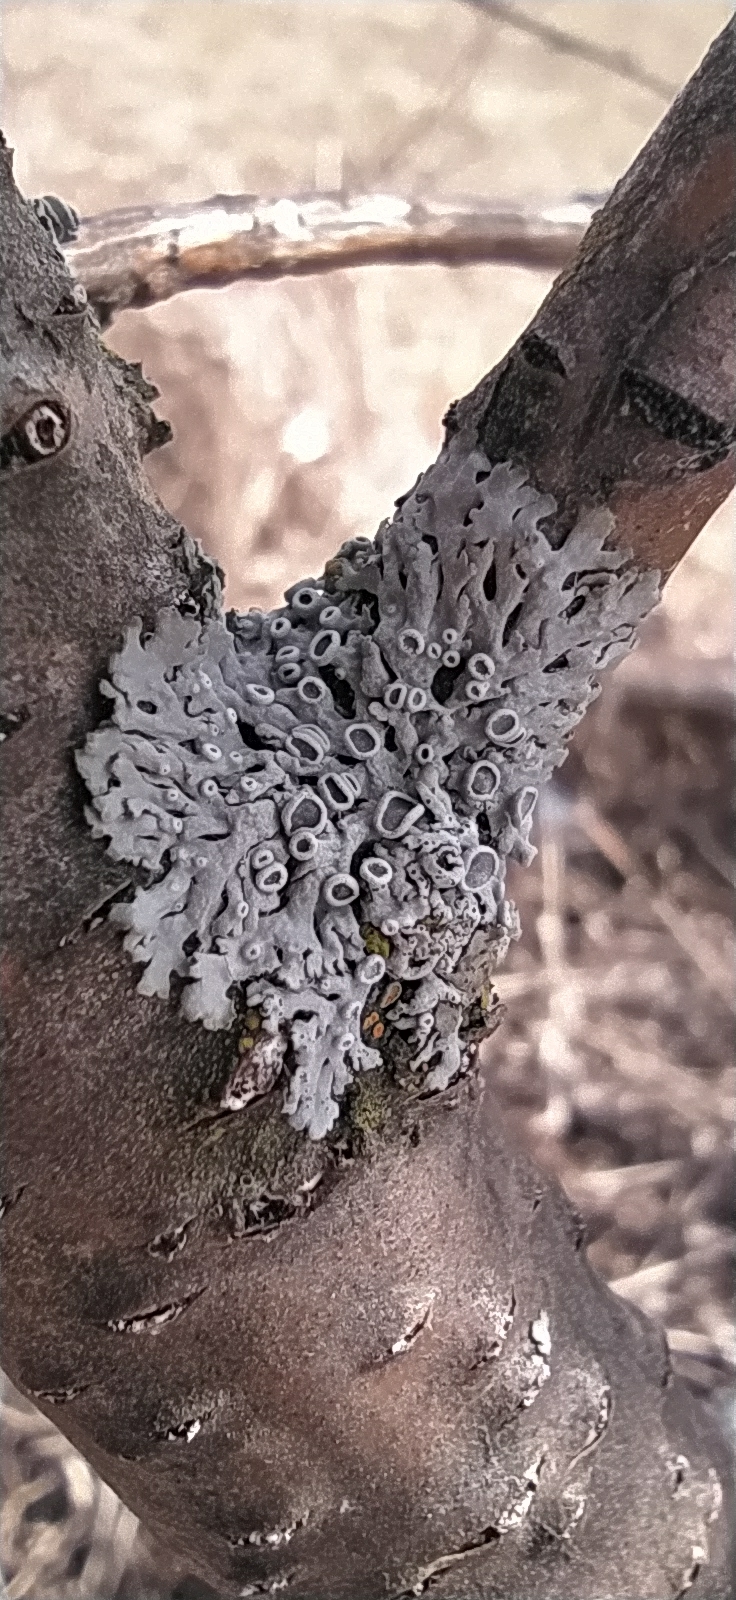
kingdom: Fungi
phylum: Ascomycota
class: Lecanoromycetes
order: Caliciales
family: Physciaceae
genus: Physcia
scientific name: Physcia stellaris
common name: Star rosette lichen
